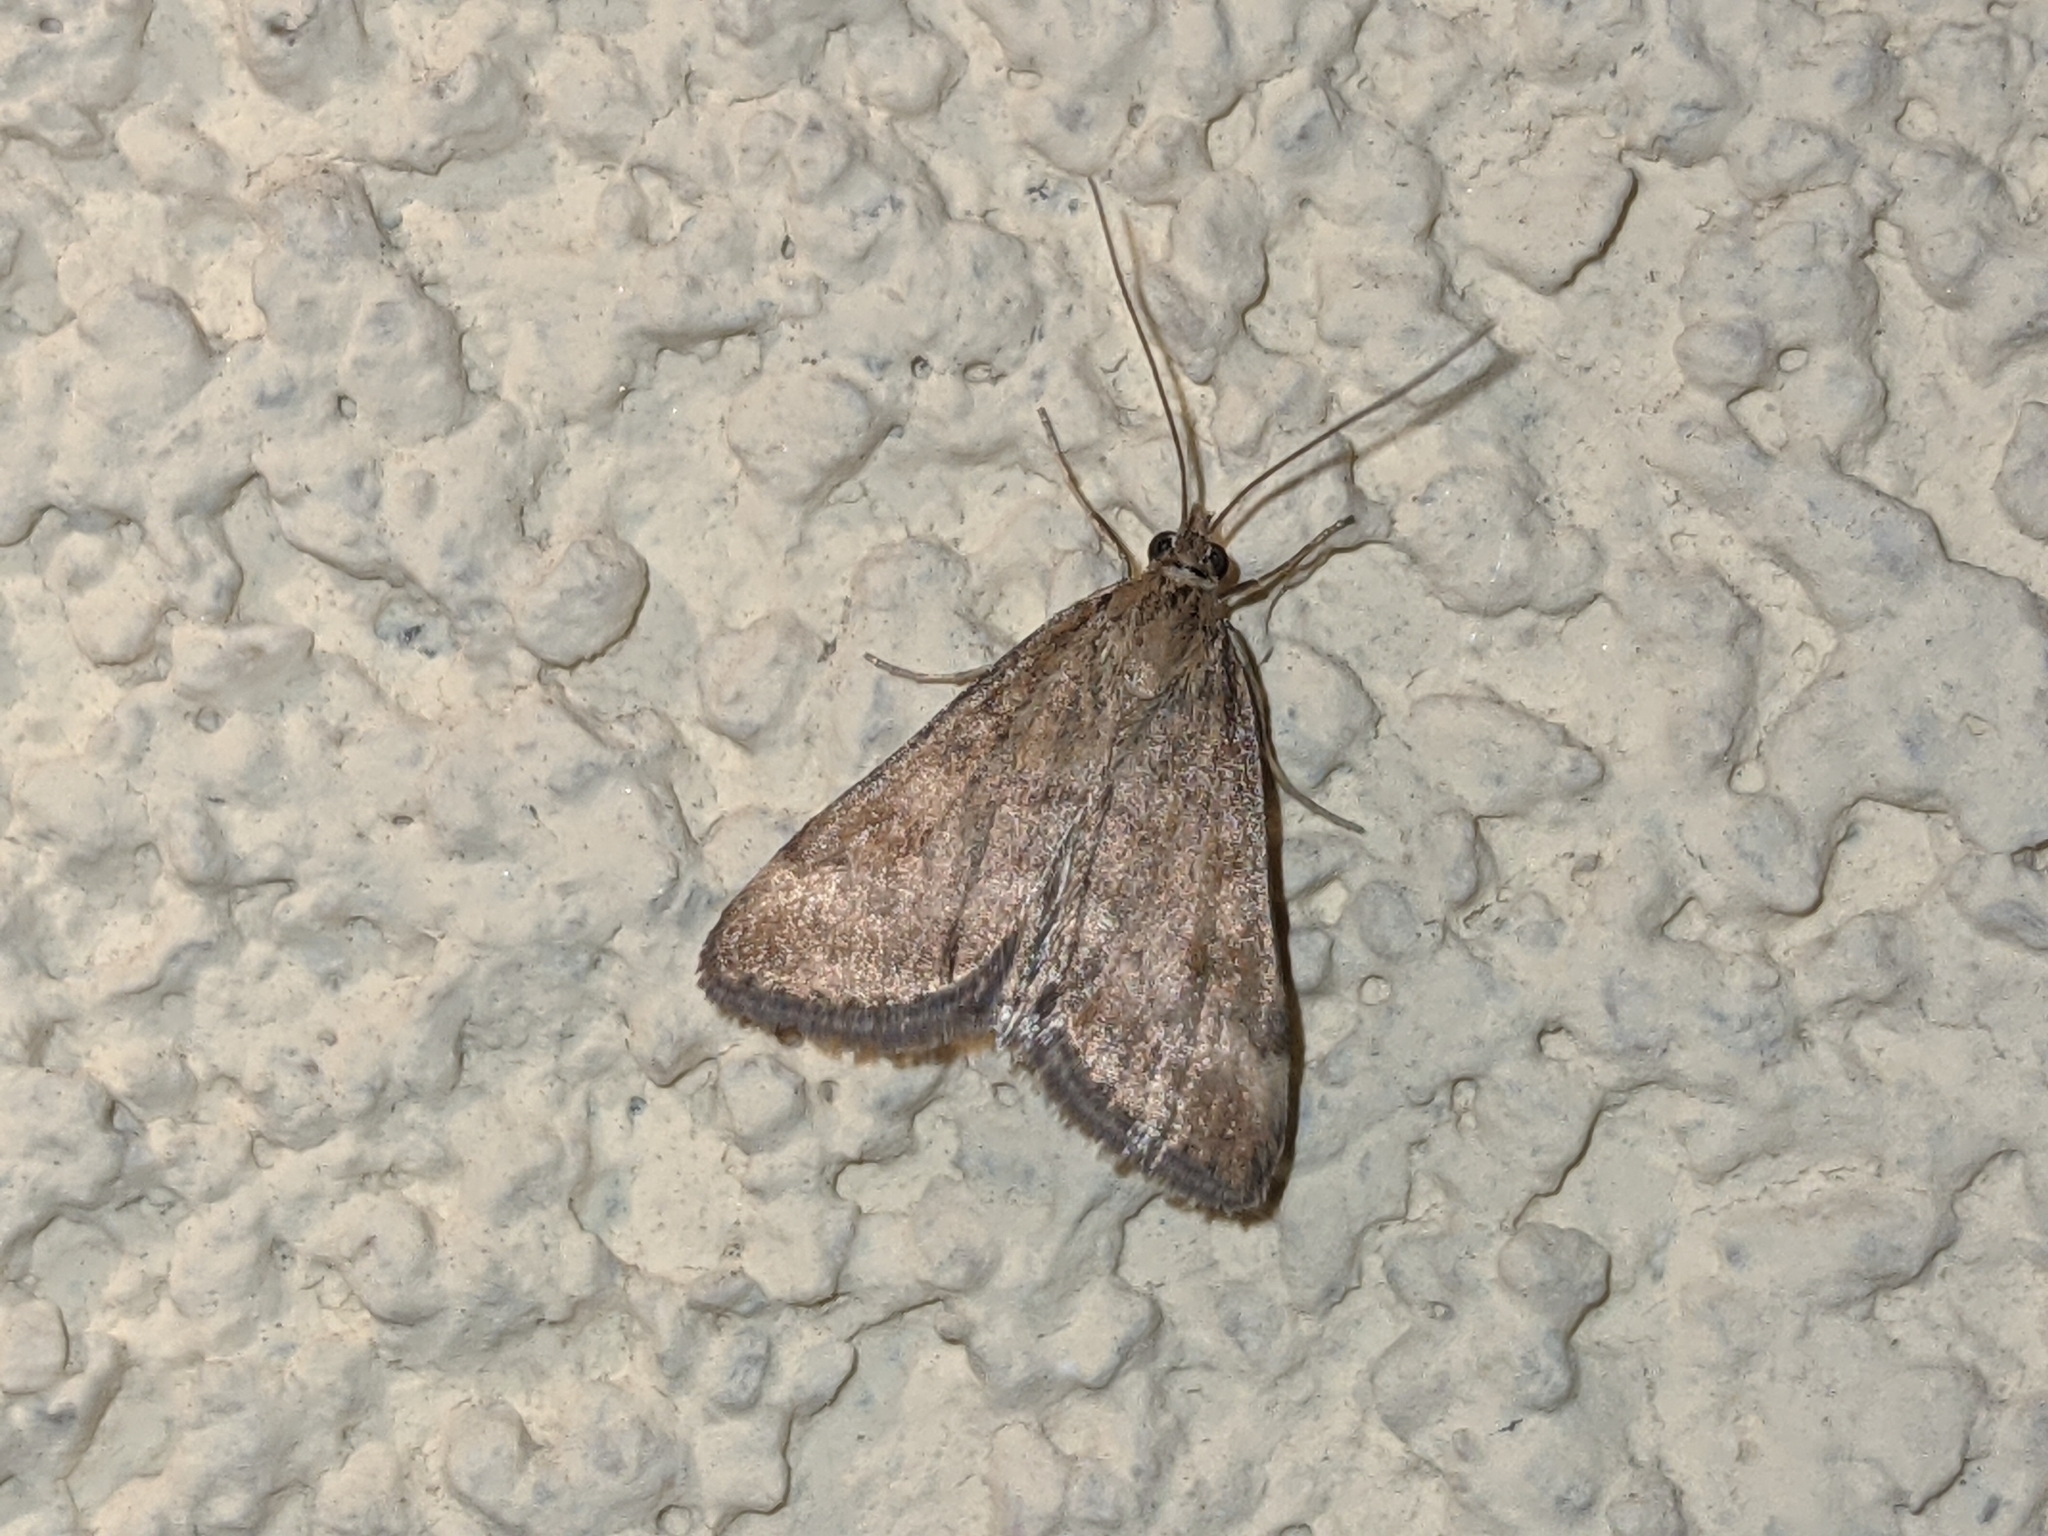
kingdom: Animalia
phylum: Arthropoda
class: Insecta
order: Lepidoptera
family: Crambidae
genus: Pyrausta
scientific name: Pyrausta despicata
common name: Straw-barred pearl
